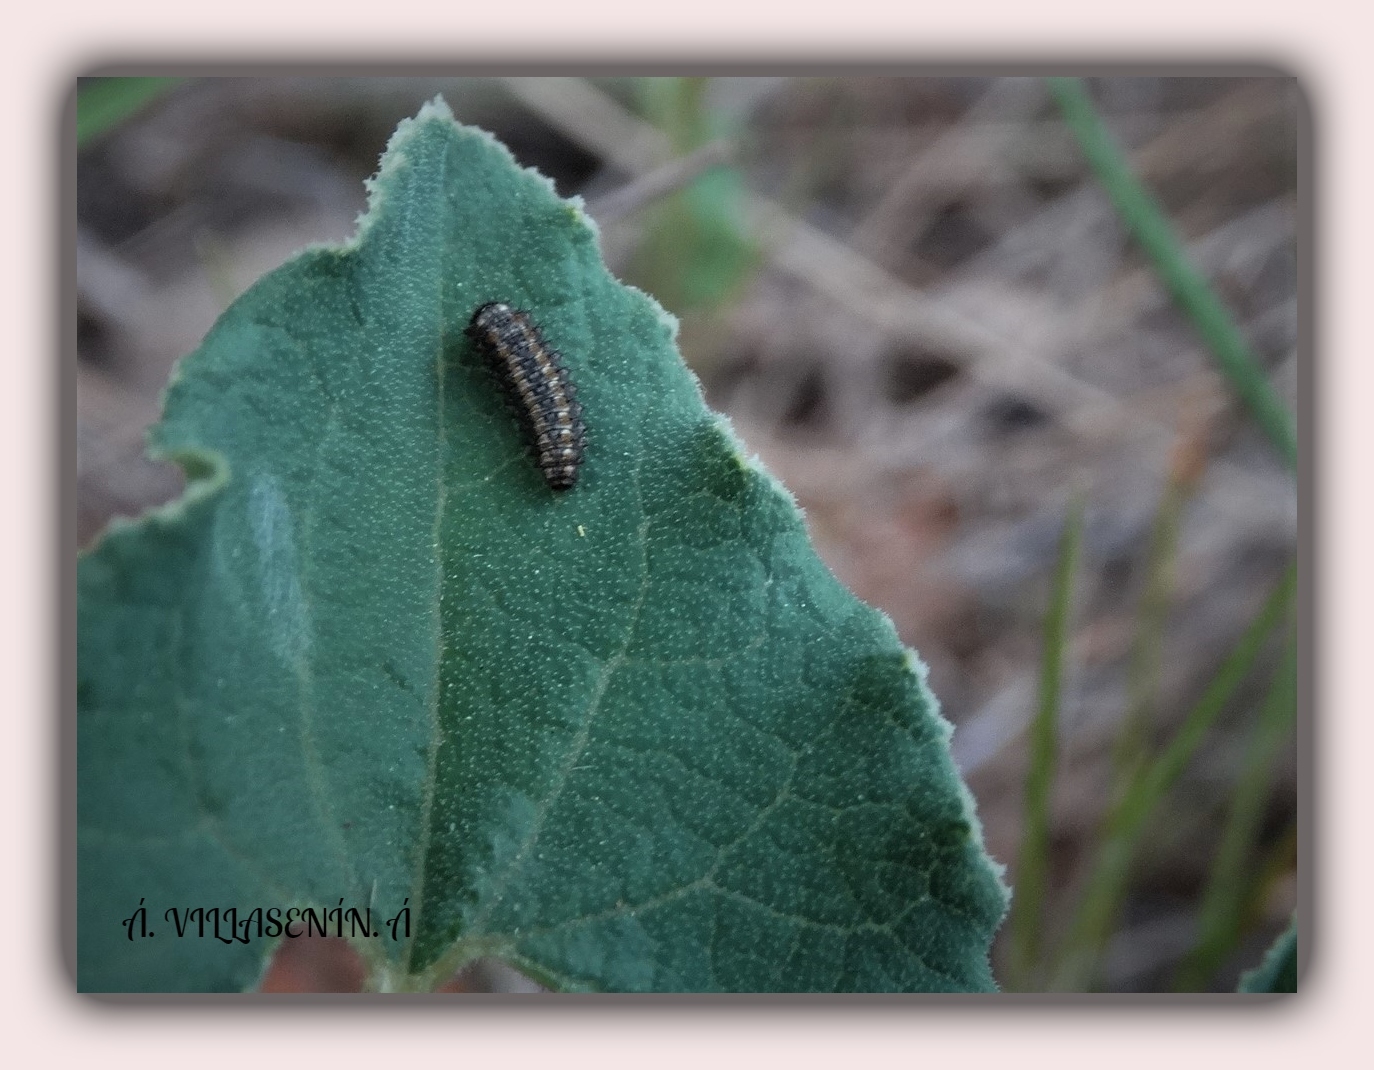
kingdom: Animalia
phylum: Arthropoda
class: Insecta
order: Lepidoptera
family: Papilionidae
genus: Zerynthia
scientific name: Zerynthia rumina
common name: Spanish festoon
